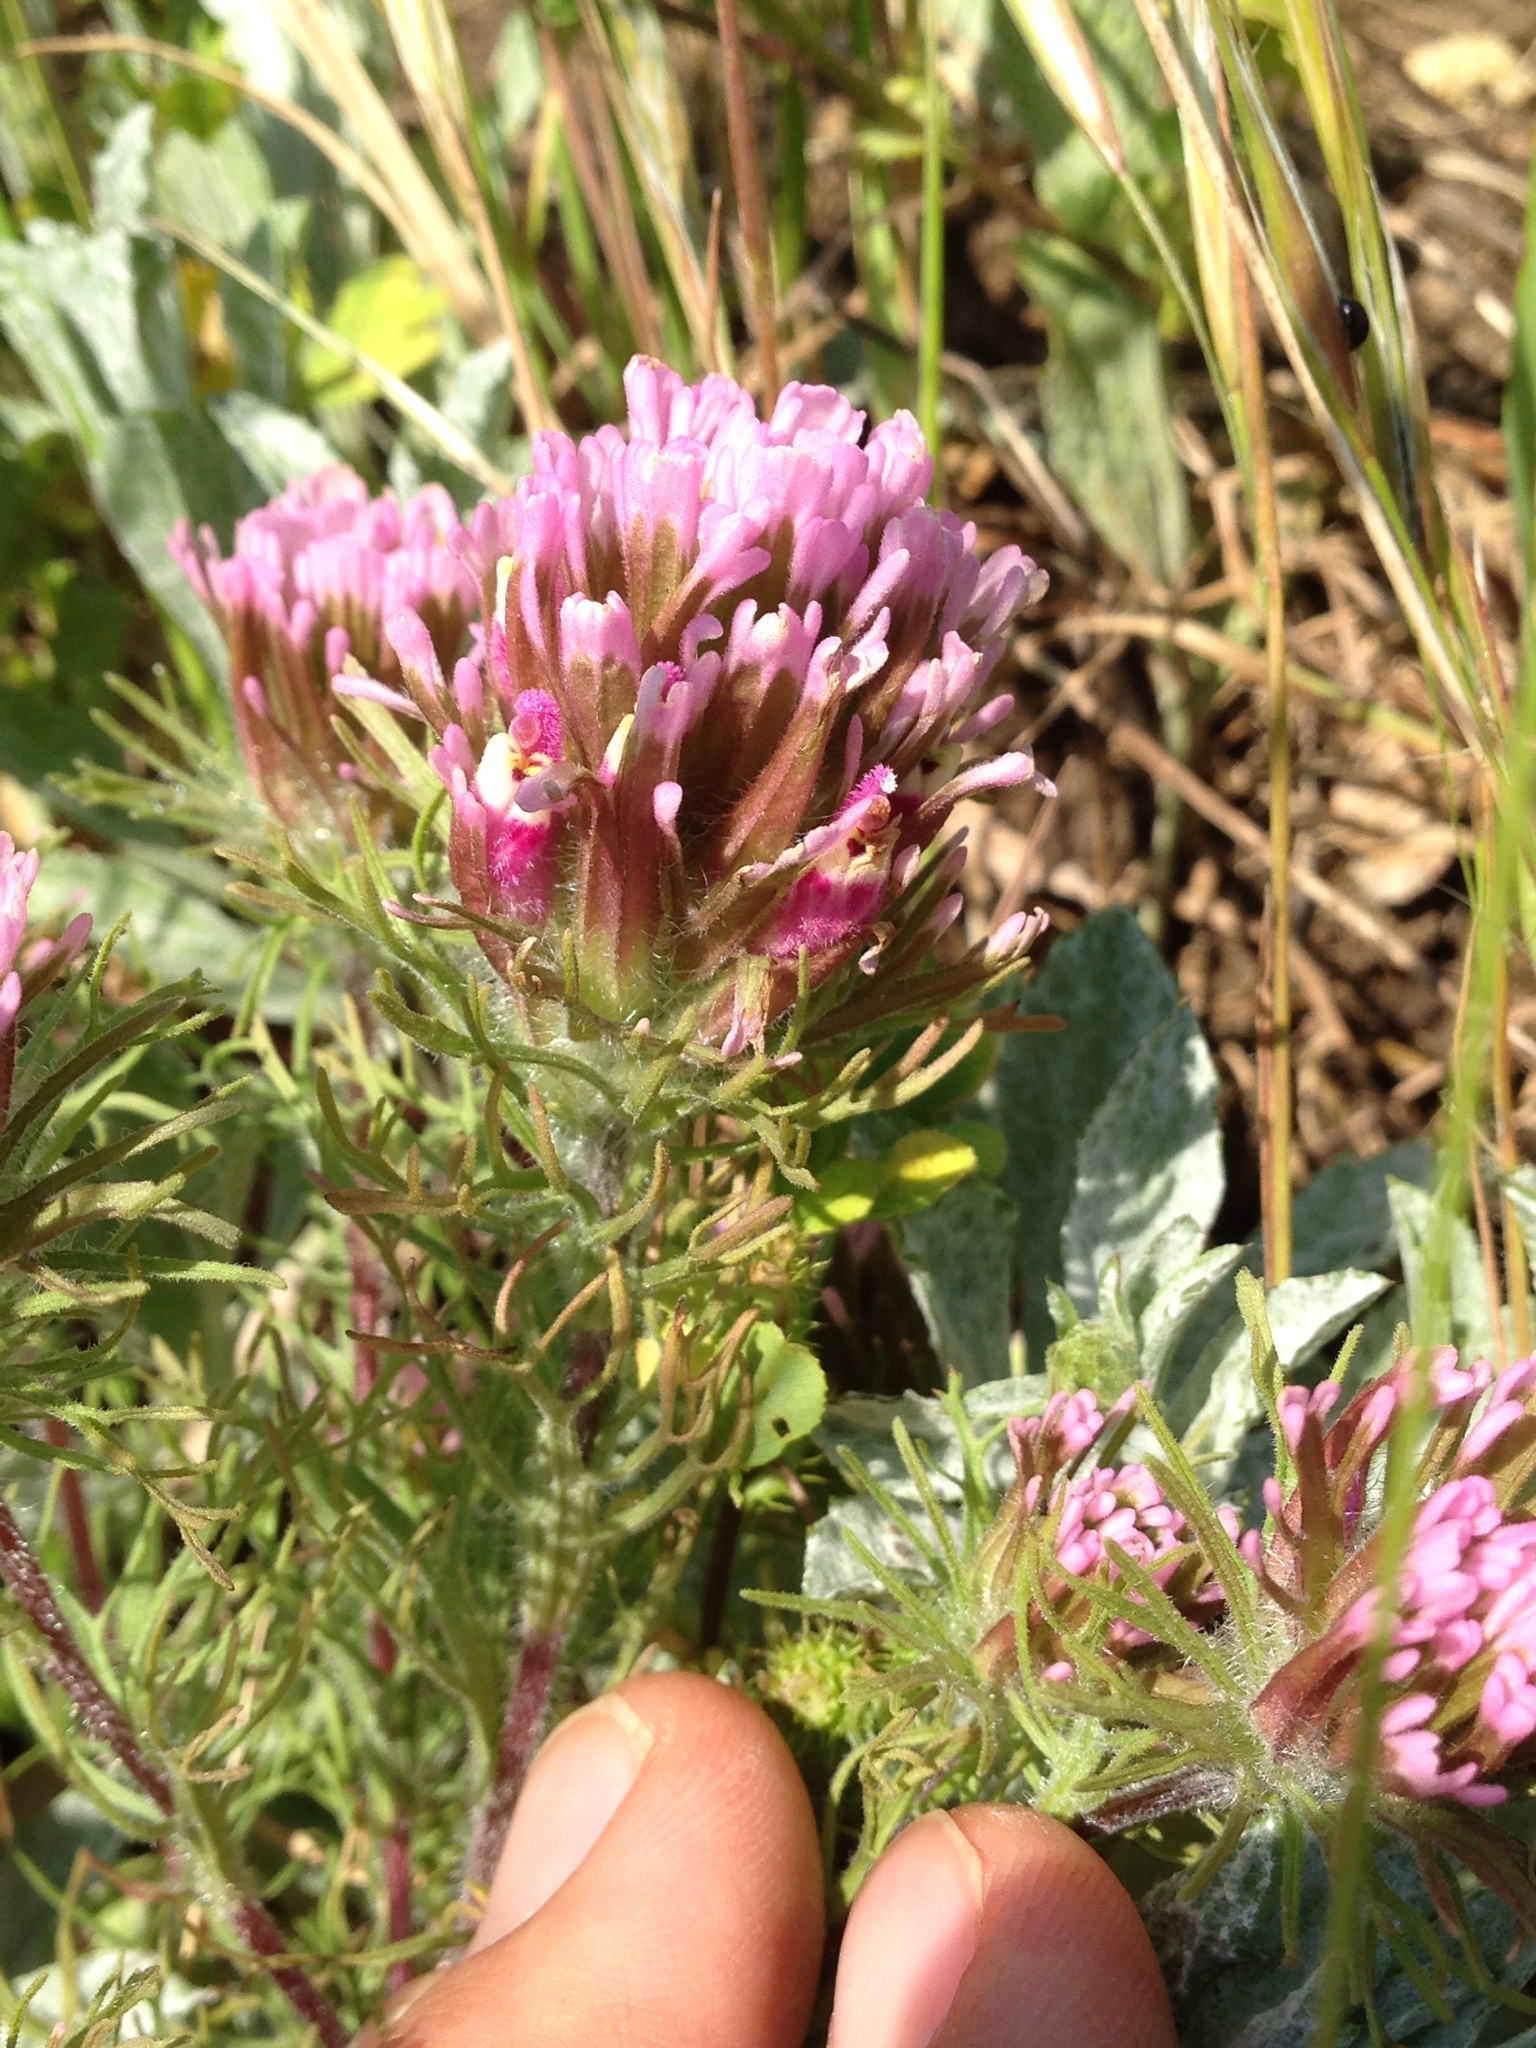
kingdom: Plantae
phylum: Tracheophyta
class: Magnoliopsida
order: Lamiales
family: Orobanchaceae
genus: Castilleja
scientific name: Castilleja exserta
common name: Purple owl-clover
